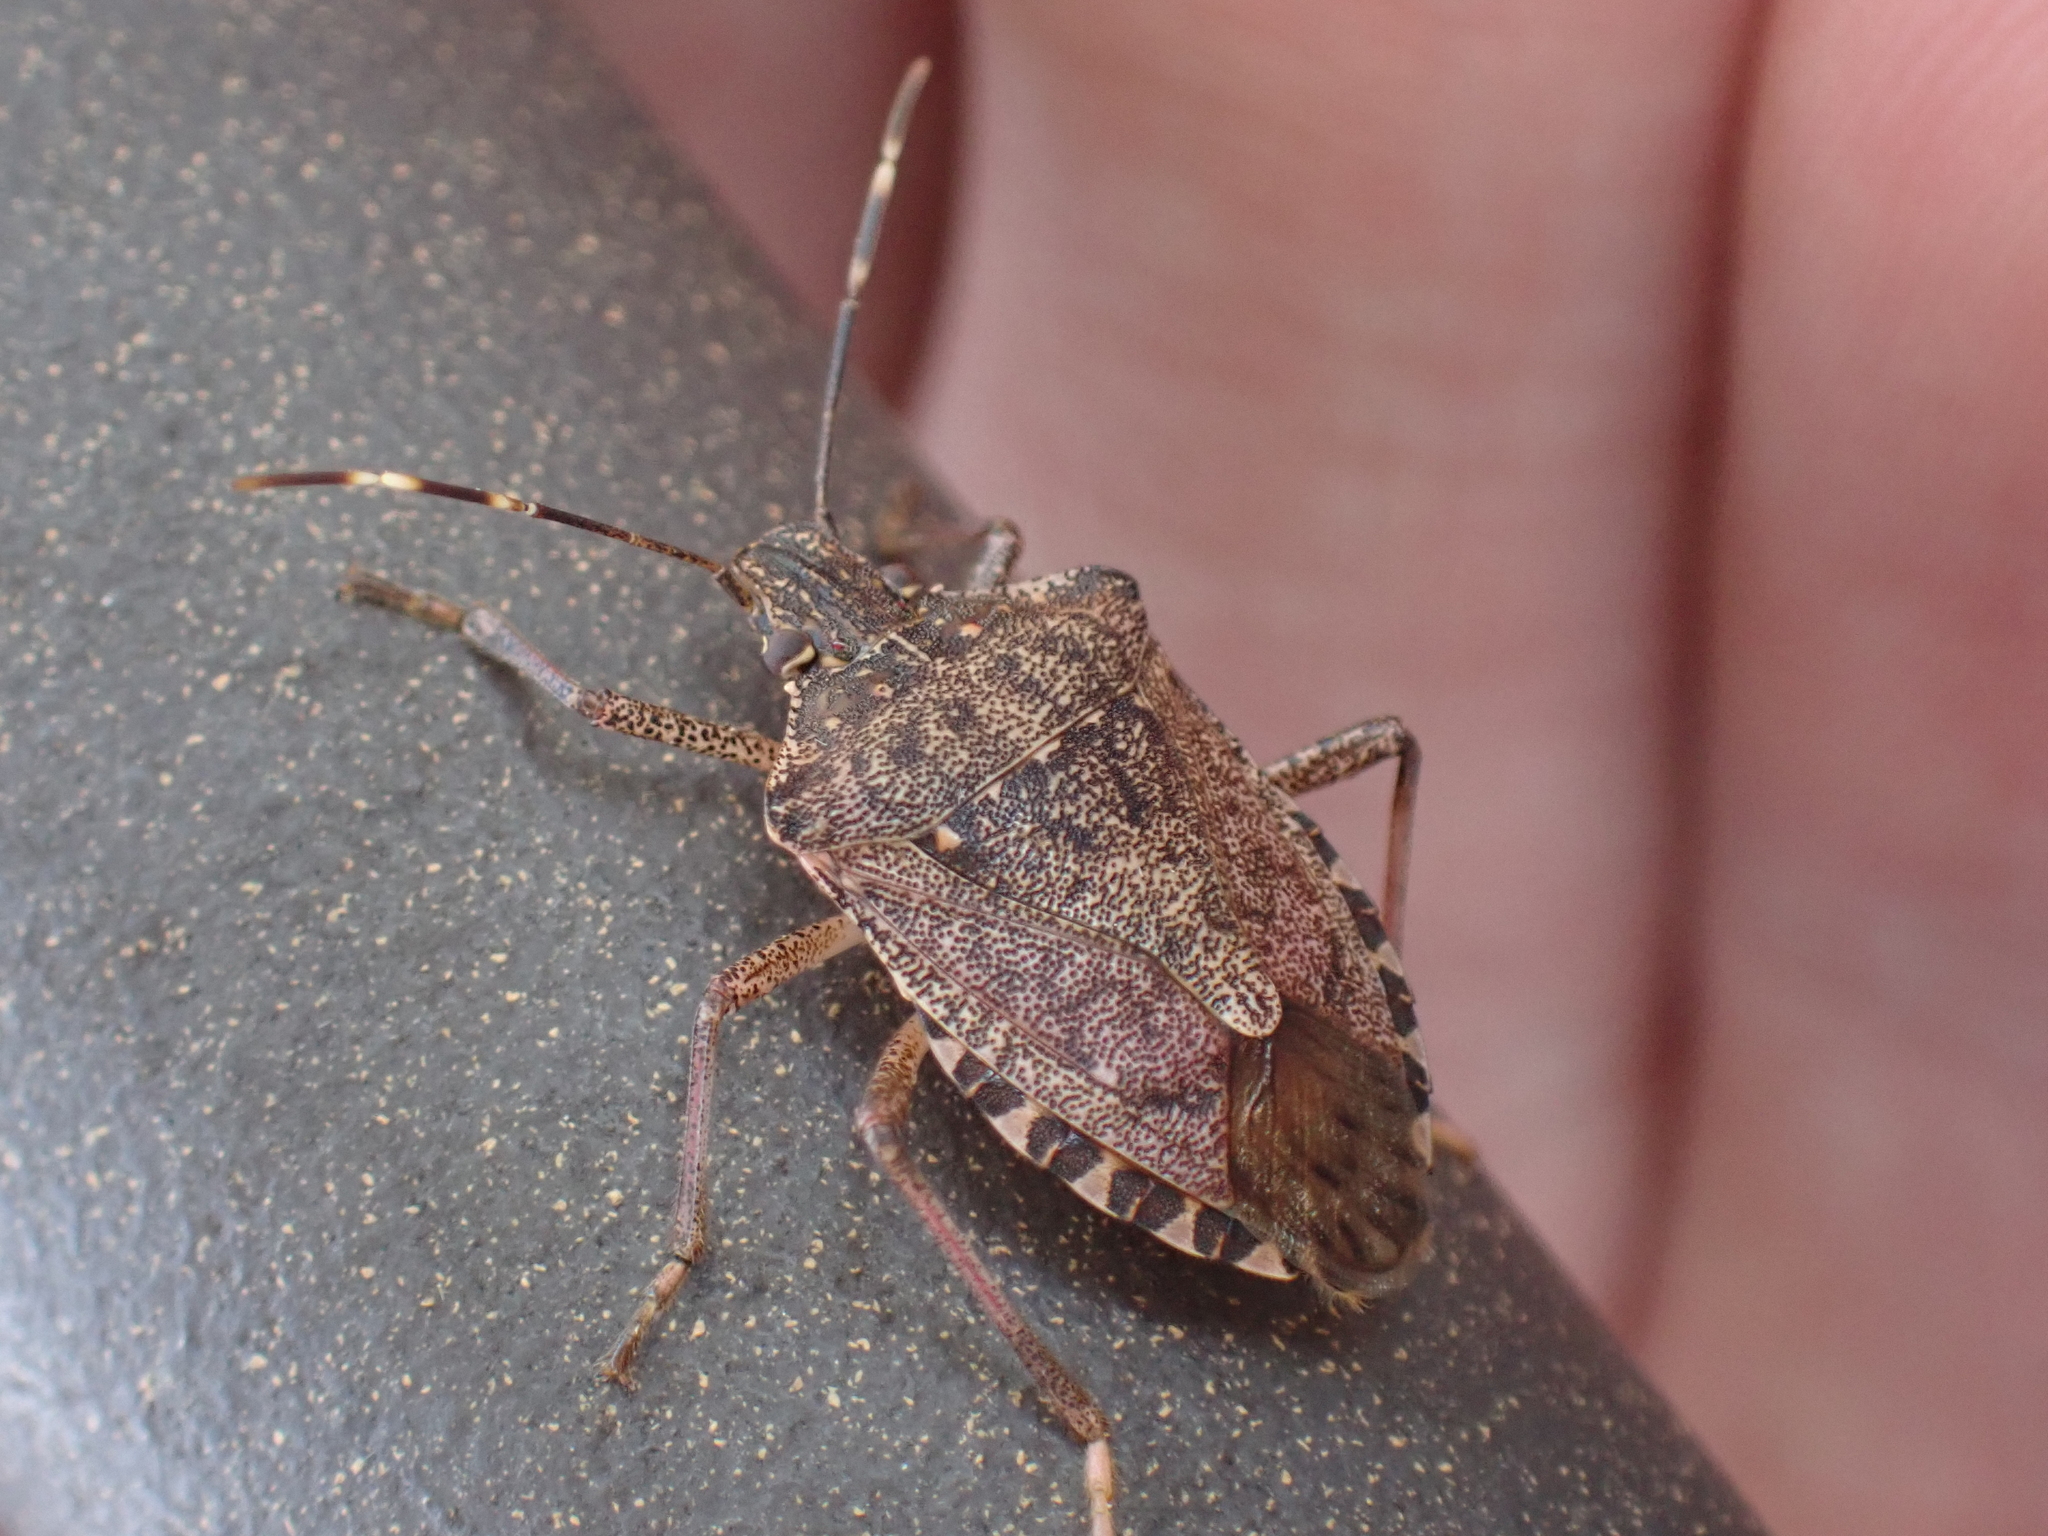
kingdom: Animalia
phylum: Arthropoda
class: Insecta
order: Hemiptera
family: Pentatomidae
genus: Halyomorpha
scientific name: Halyomorpha halys
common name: Brown marmorated stink bug
